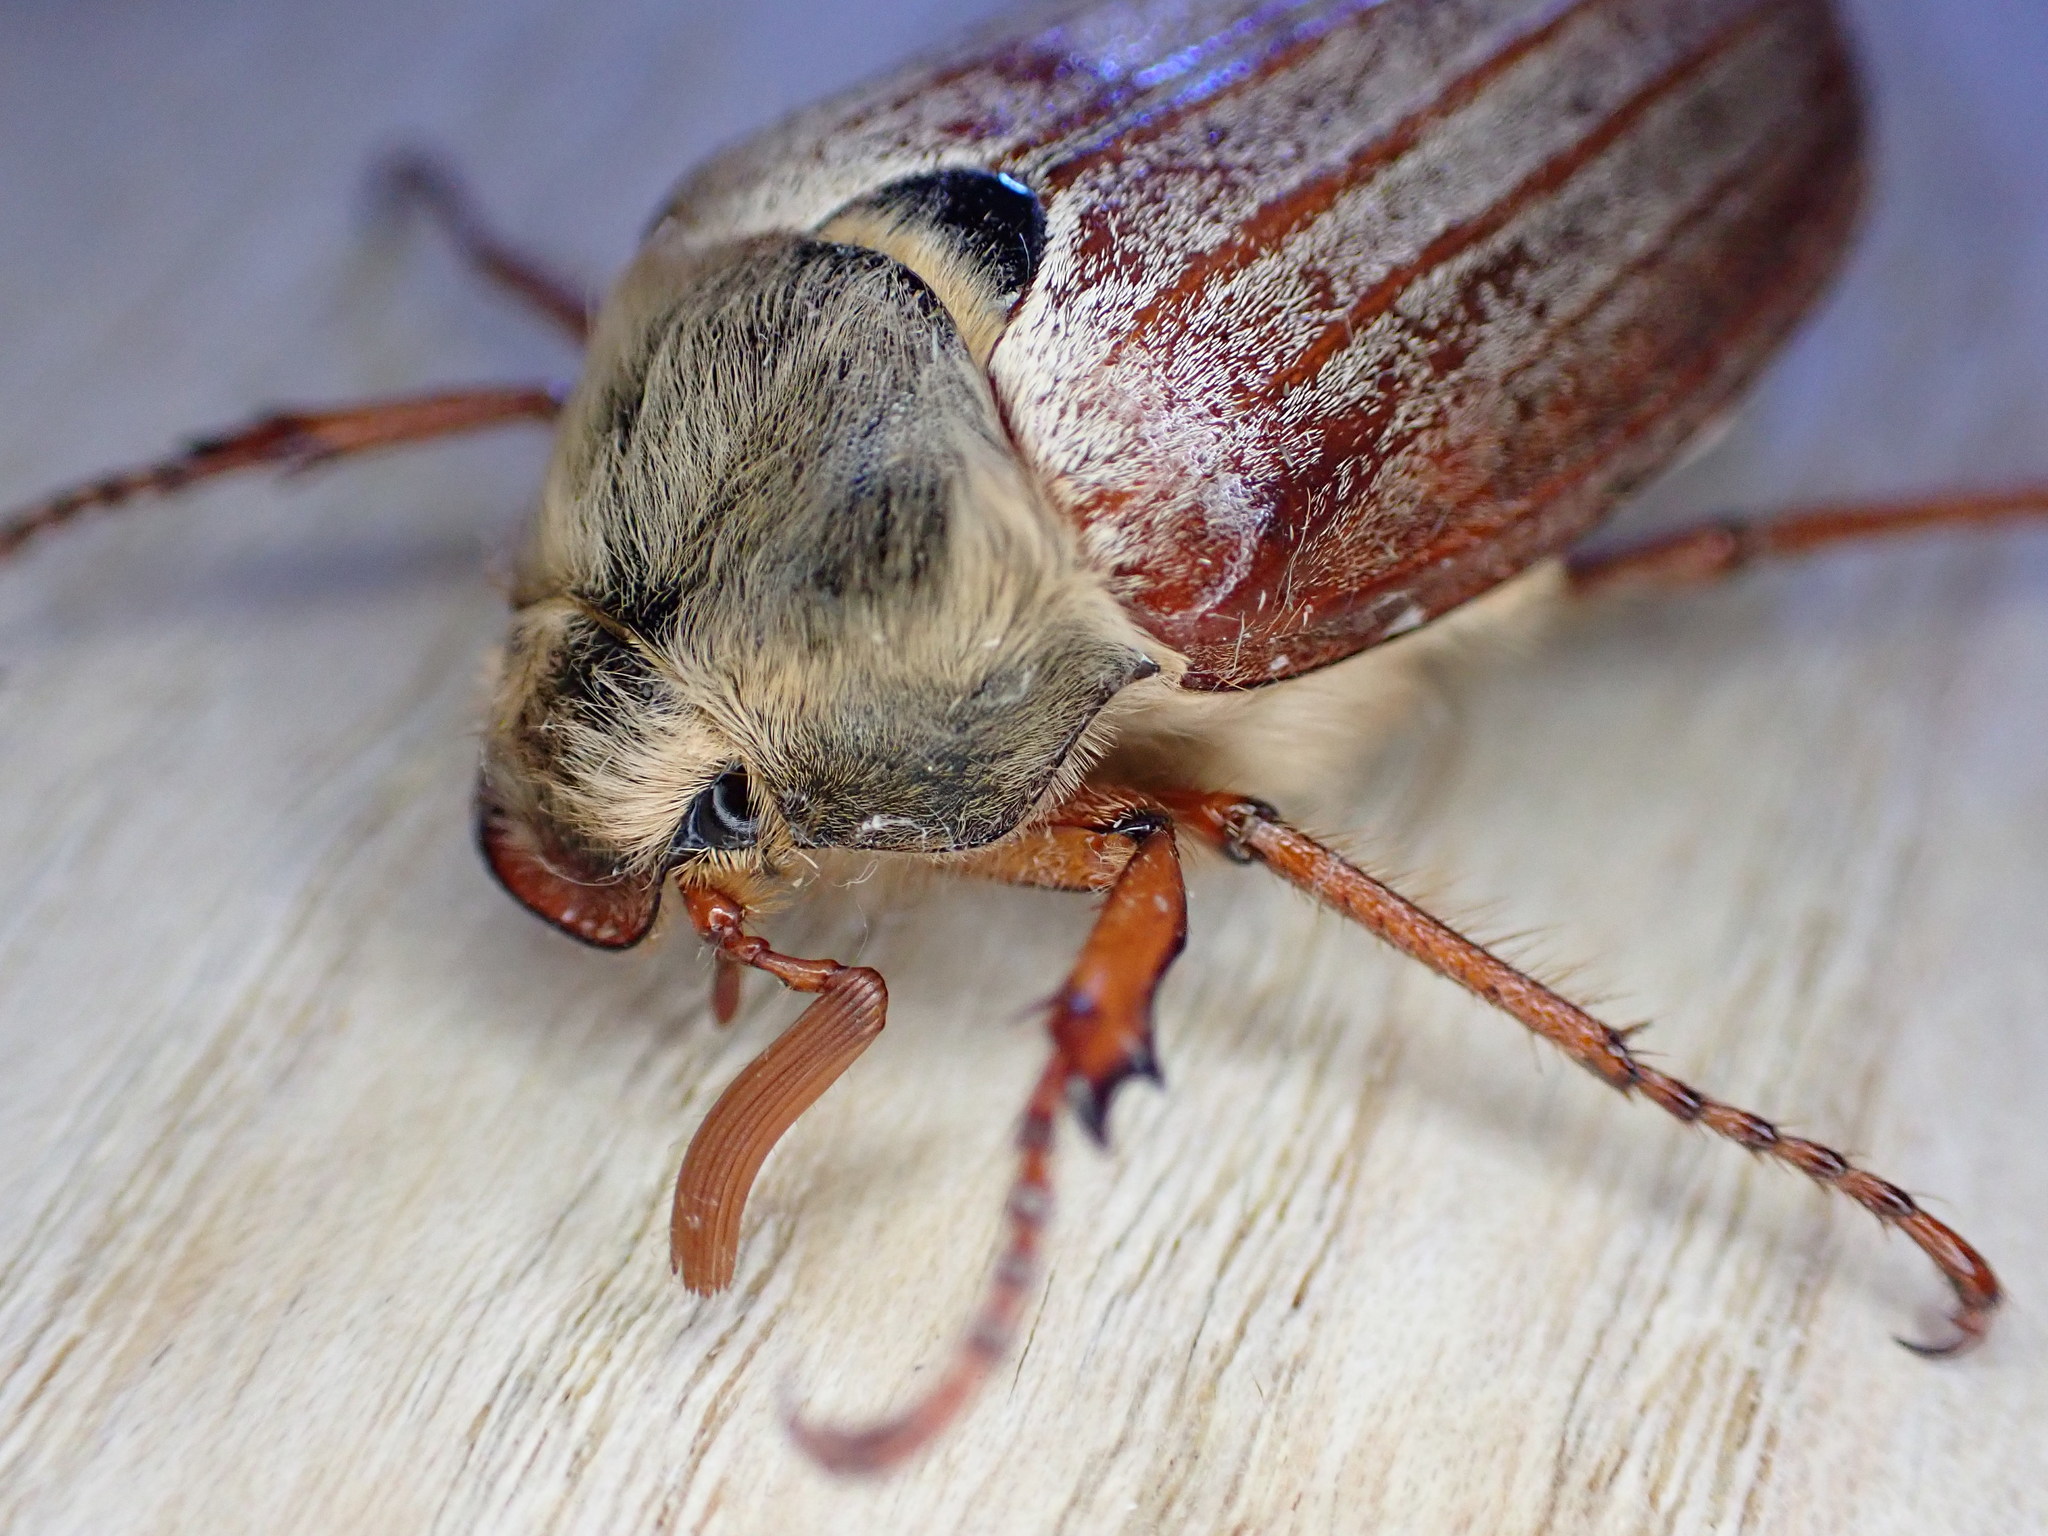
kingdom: Animalia
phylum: Arthropoda
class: Insecta
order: Coleoptera
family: Scarabaeidae
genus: Melolontha
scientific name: Melolontha melolontha
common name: Cockchafer maybeetle
